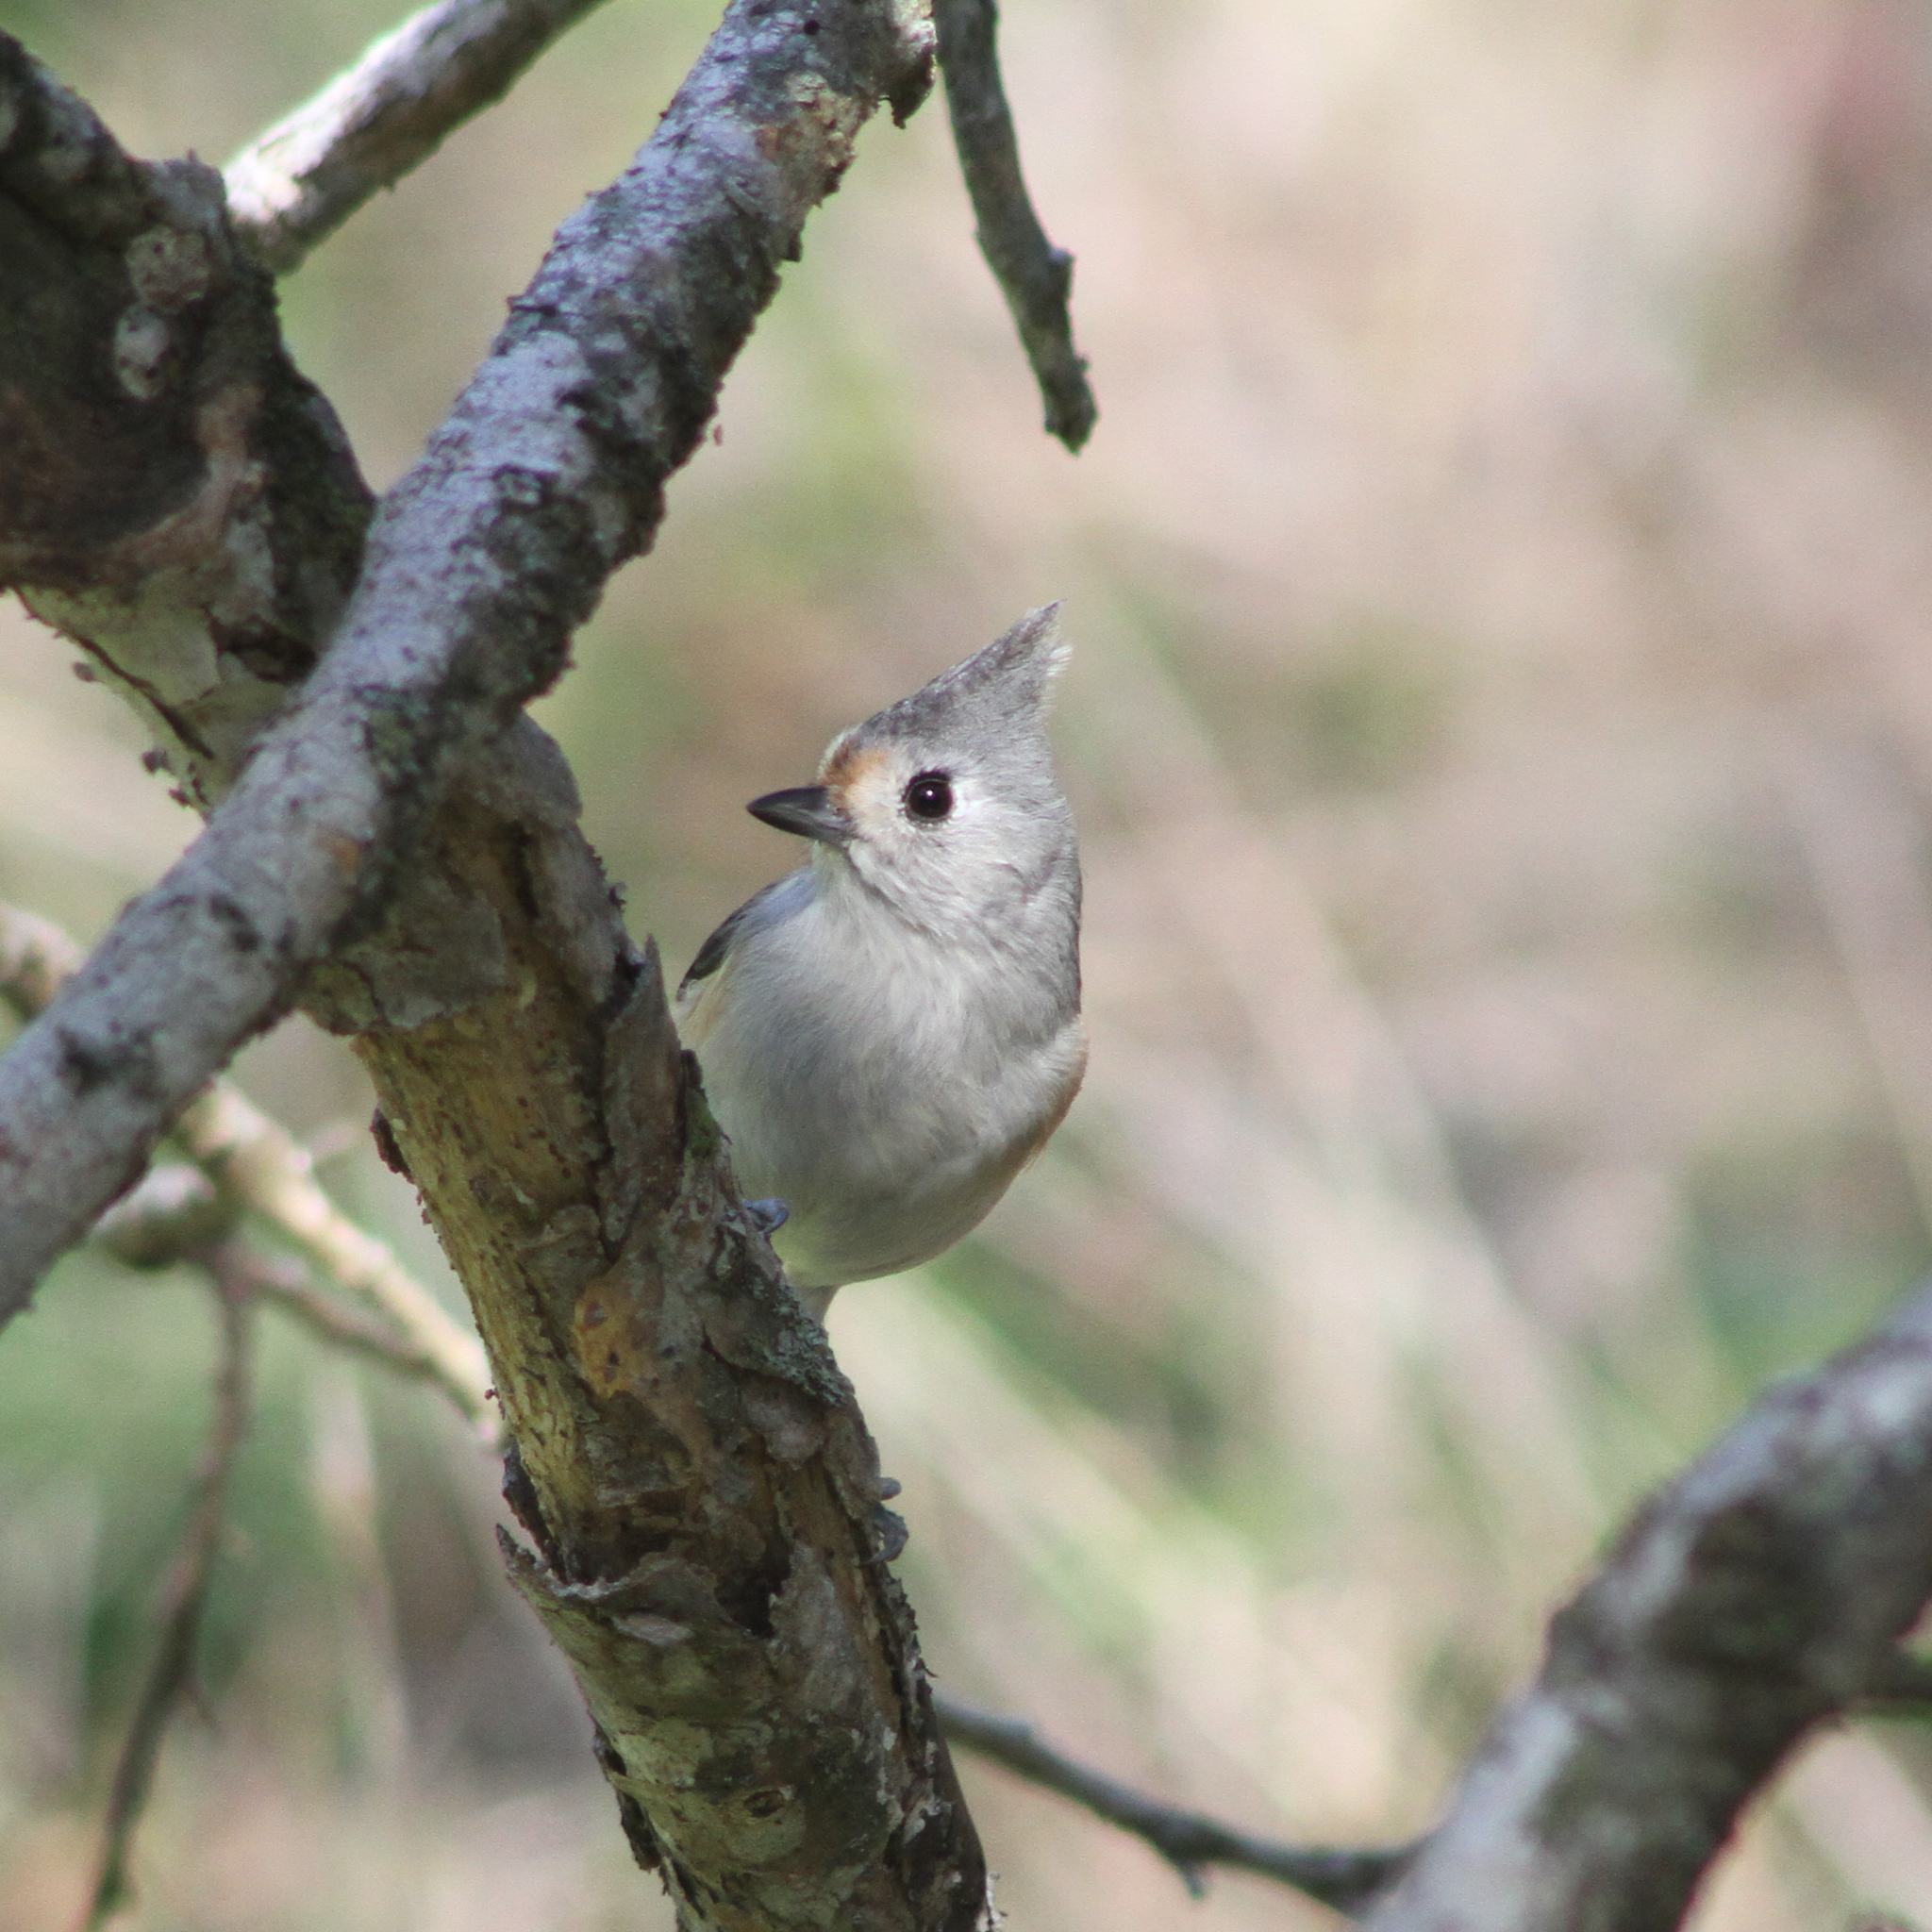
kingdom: Animalia
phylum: Chordata
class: Aves
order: Passeriformes
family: Paridae
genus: Baeolophus
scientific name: Baeolophus
